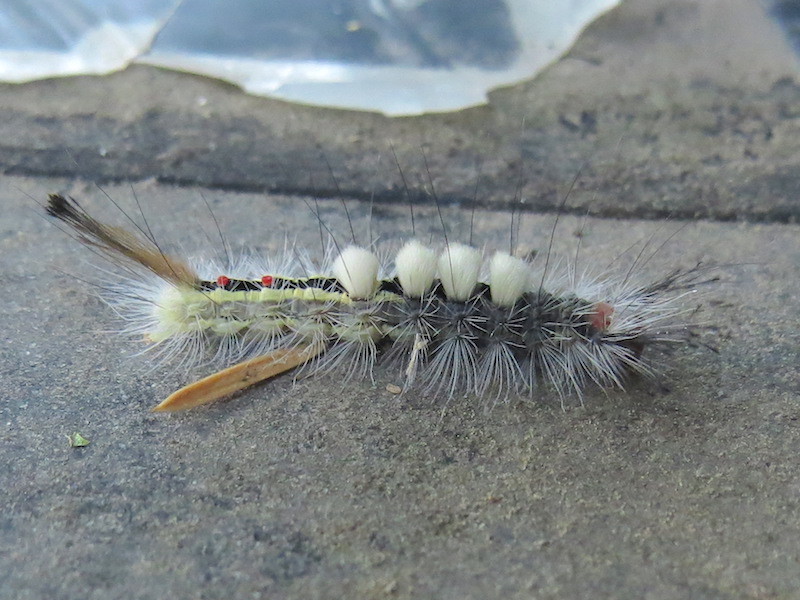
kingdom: Animalia
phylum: Arthropoda
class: Insecta
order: Lepidoptera
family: Erebidae
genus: Orgyia
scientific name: Orgyia leucostigma
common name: White-marked tussock moth
